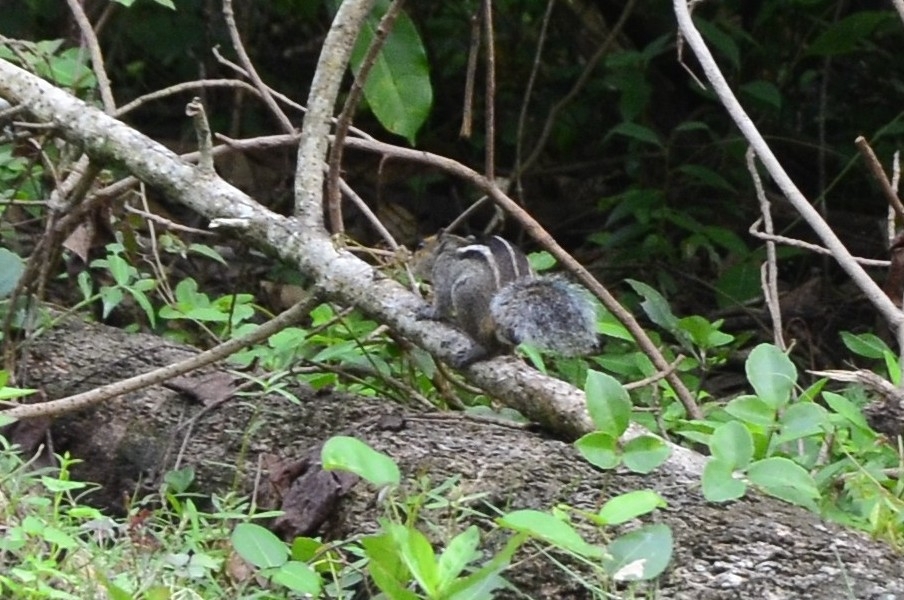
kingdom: Animalia
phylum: Chordata
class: Mammalia
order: Rodentia
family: Sciuridae
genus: Funambulus
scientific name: Funambulus tristriatus
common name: Jungle palm squirrel
